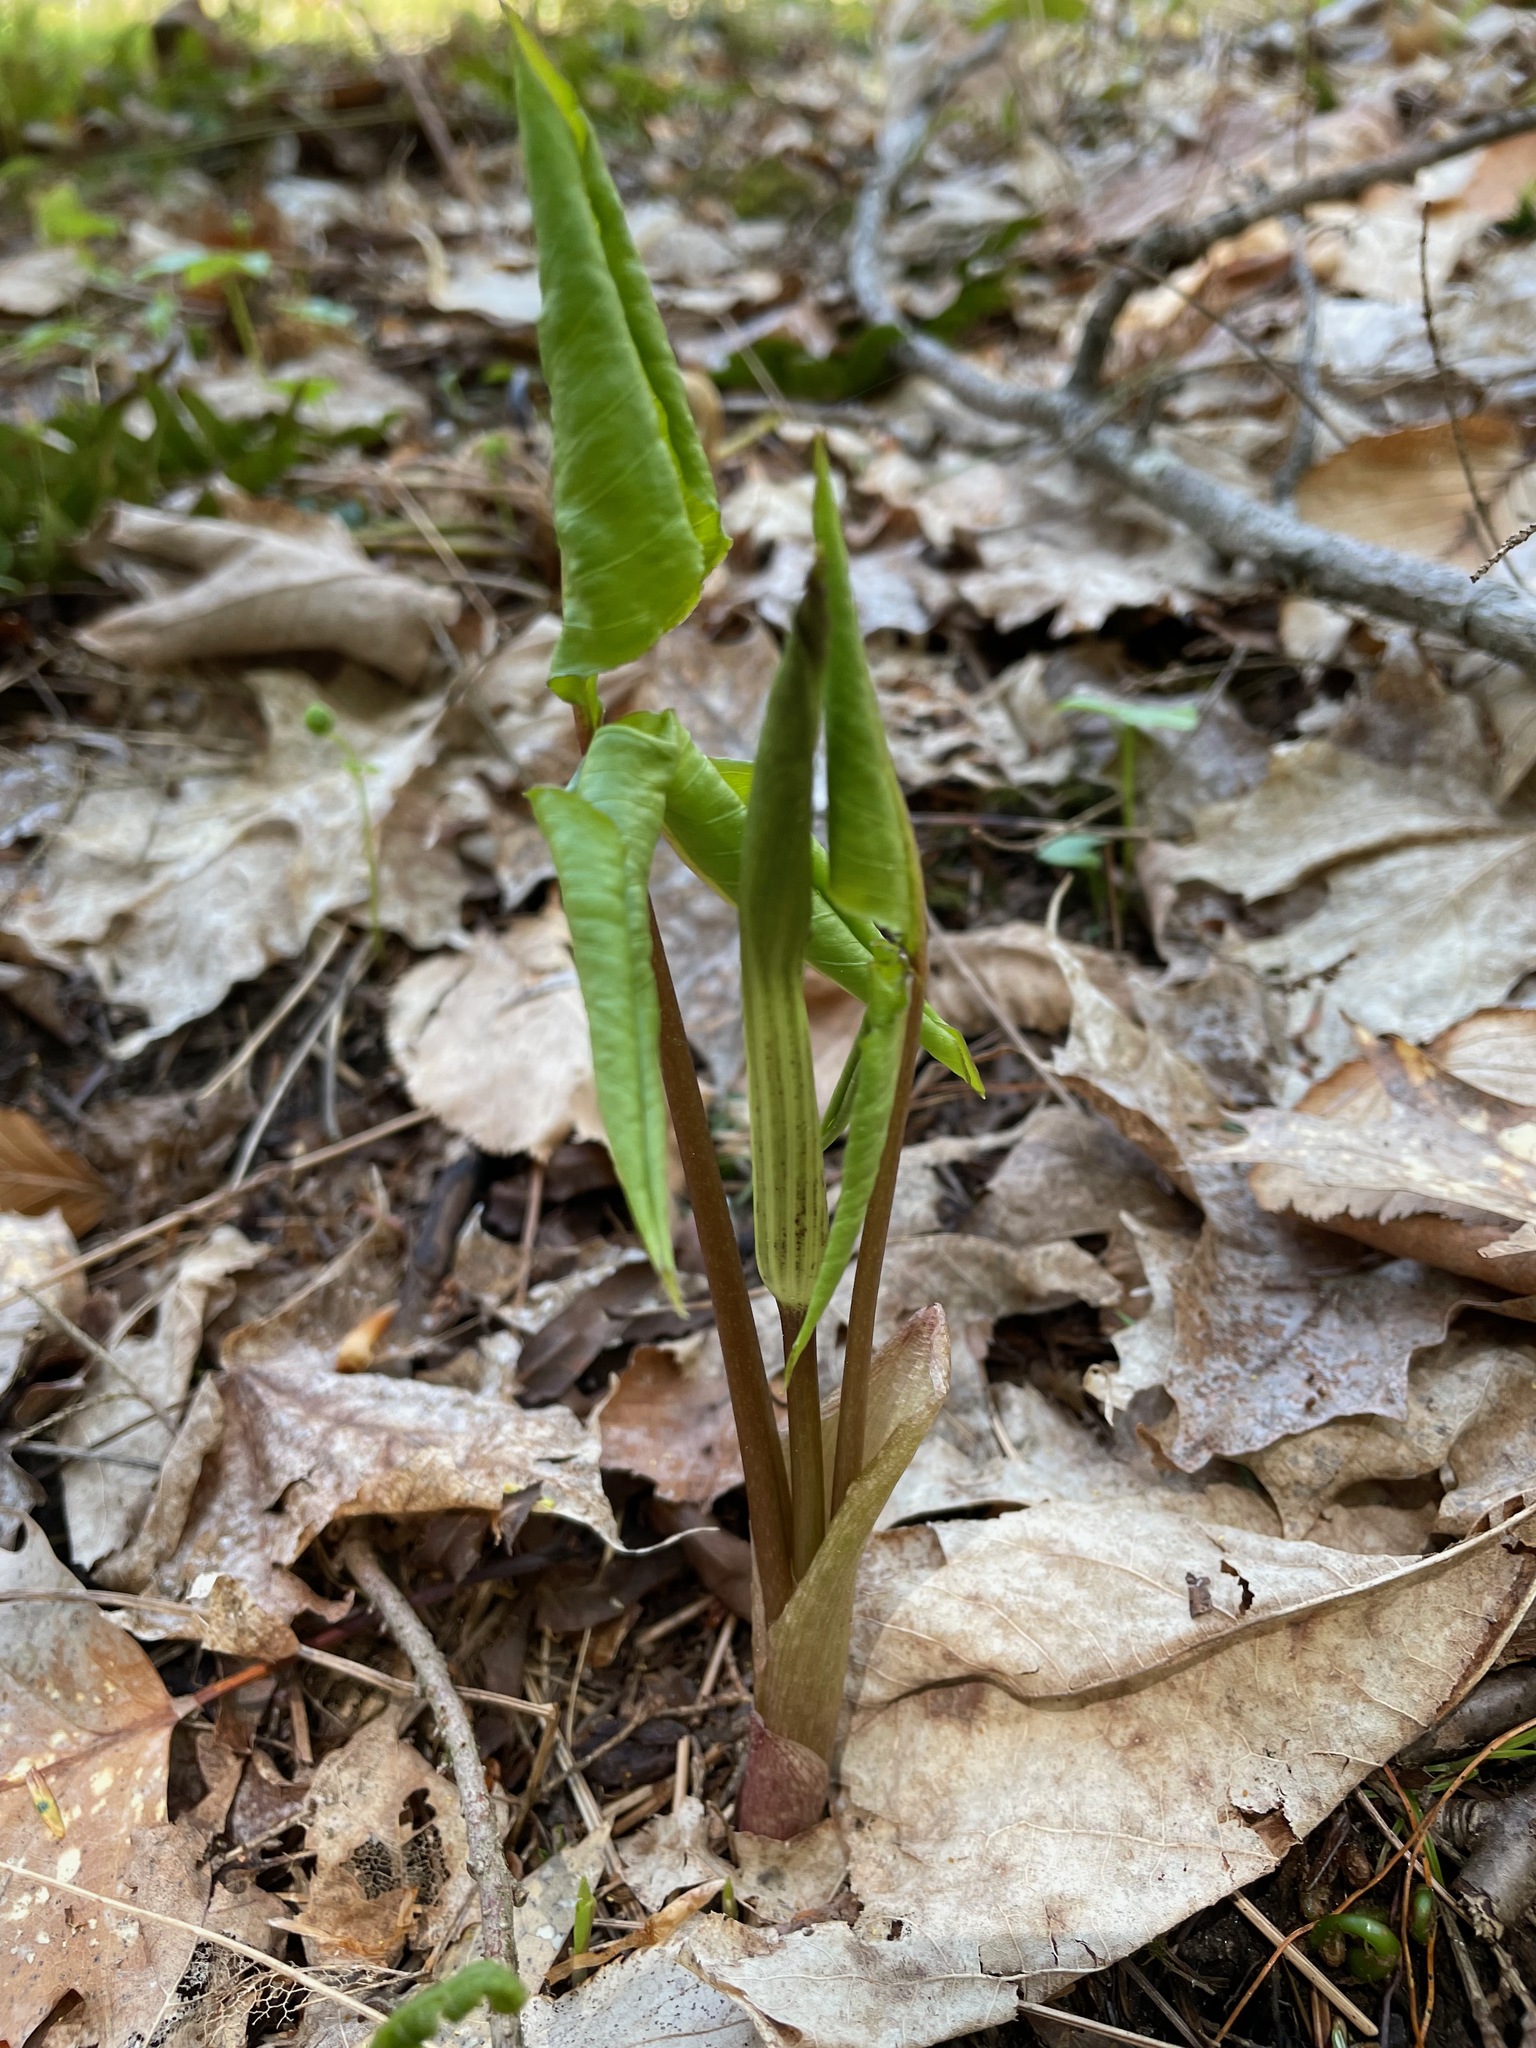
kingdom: Plantae
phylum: Tracheophyta
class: Liliopsida
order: Alismatales
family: Araceae
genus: Arisaema
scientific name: Arisaema triphyllum
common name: Jack-in-the-pulpit
